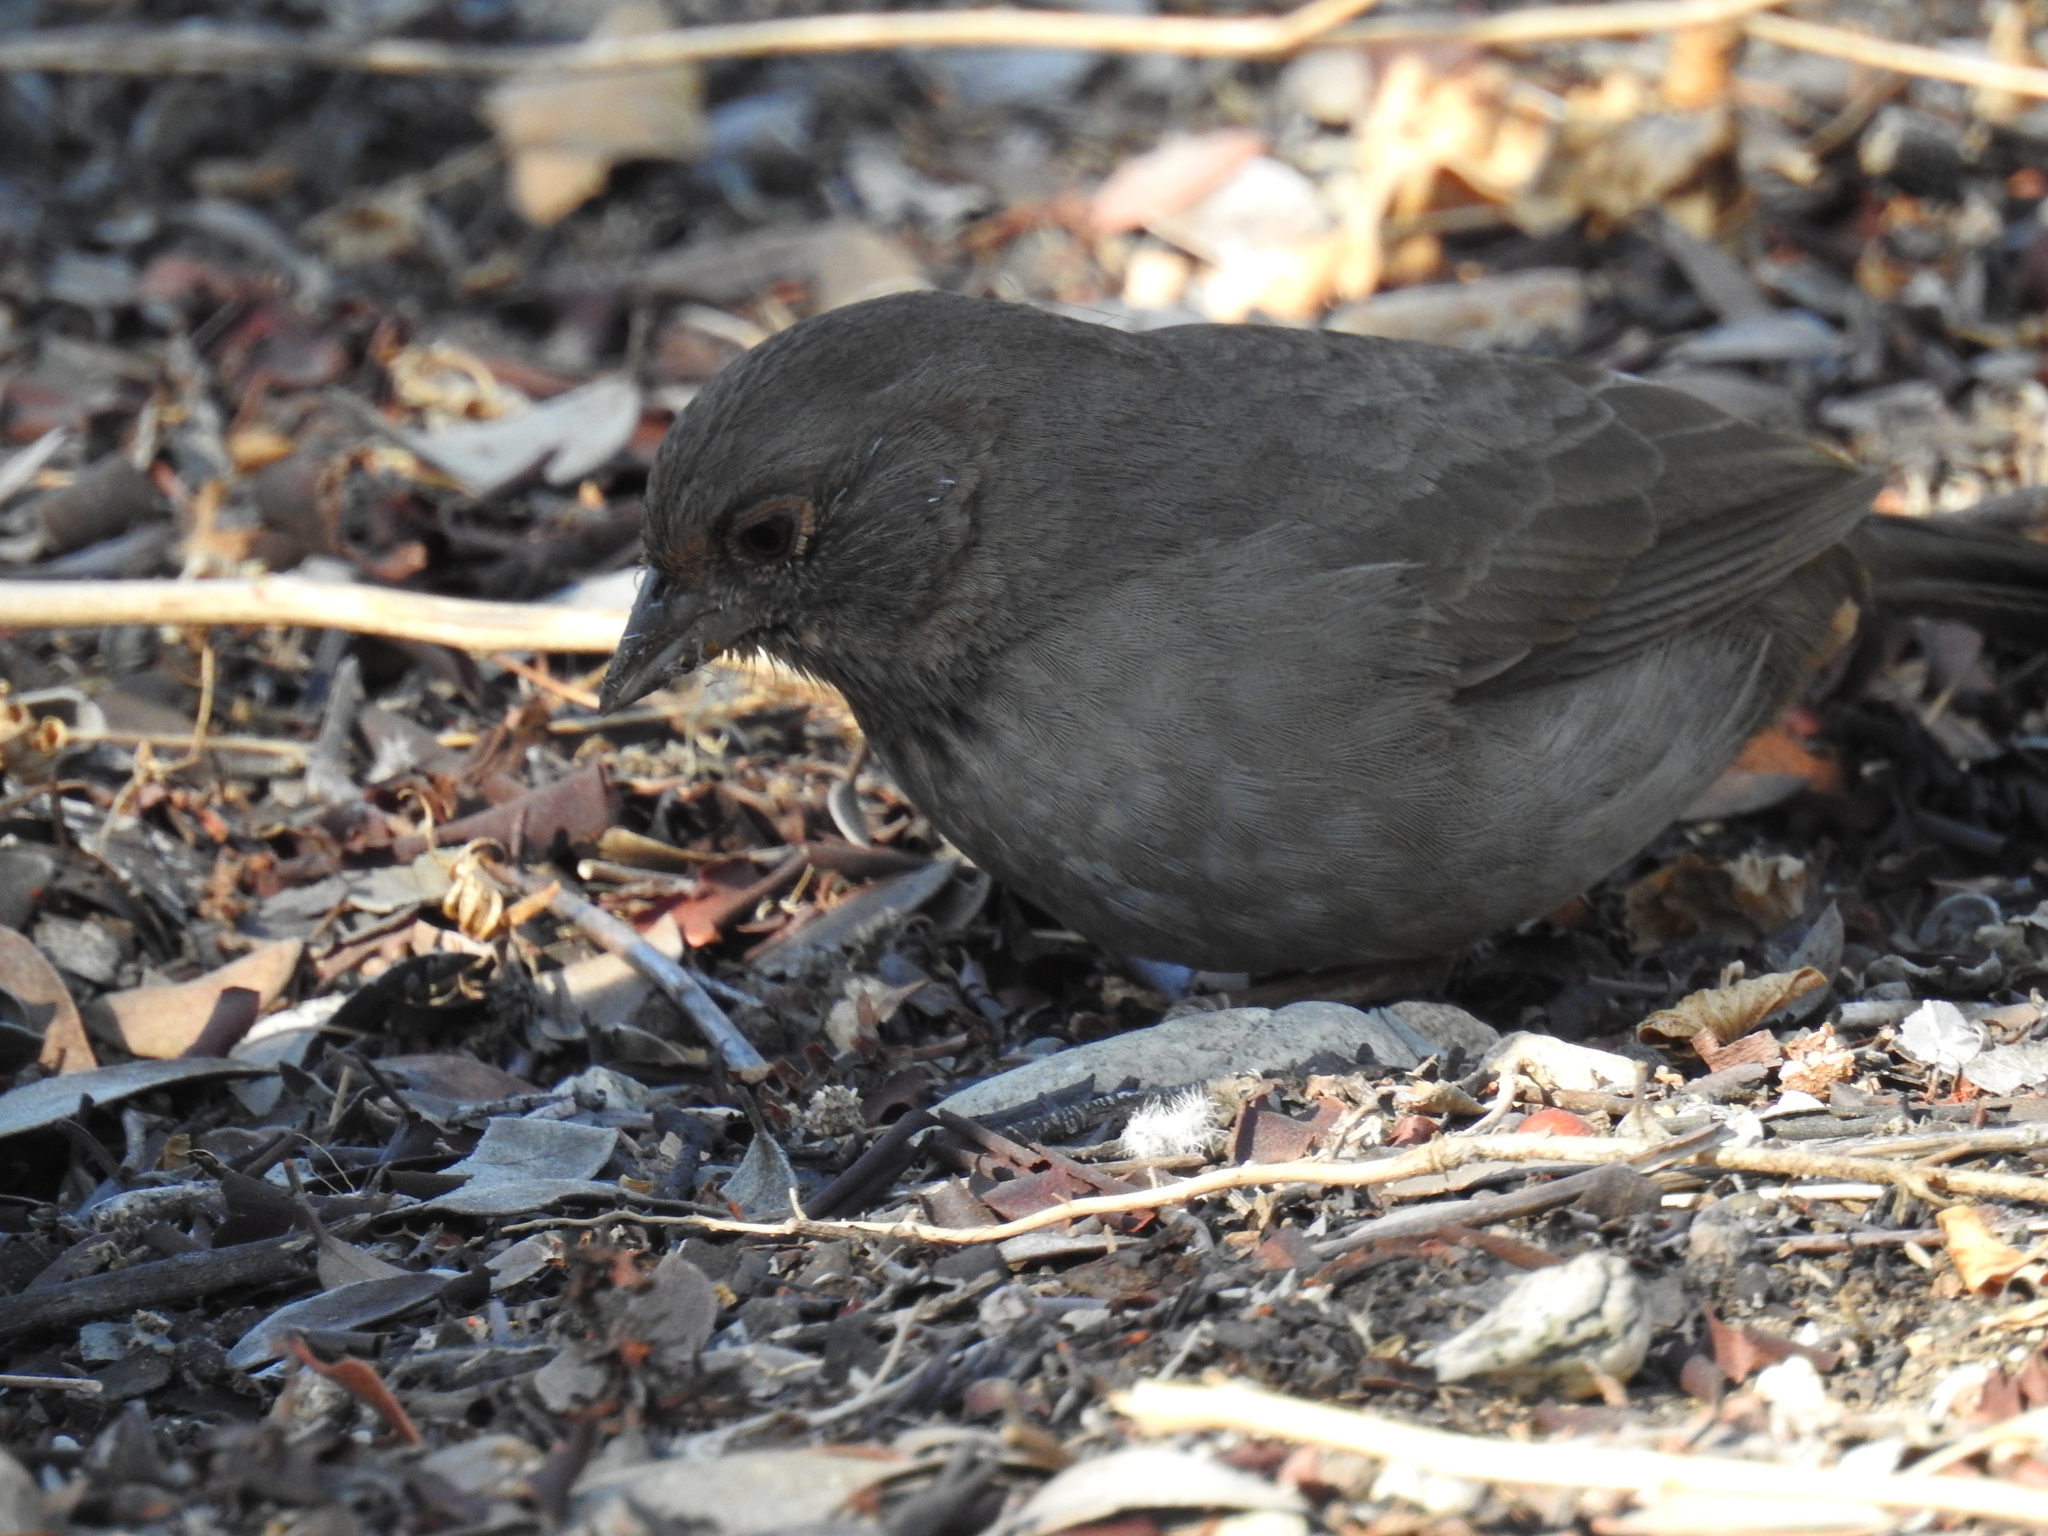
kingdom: Animalia
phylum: Chordata
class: Aves
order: Passeriformes
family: Passerellidae
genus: Melozone
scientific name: Melozone crissalis
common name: California towhee
